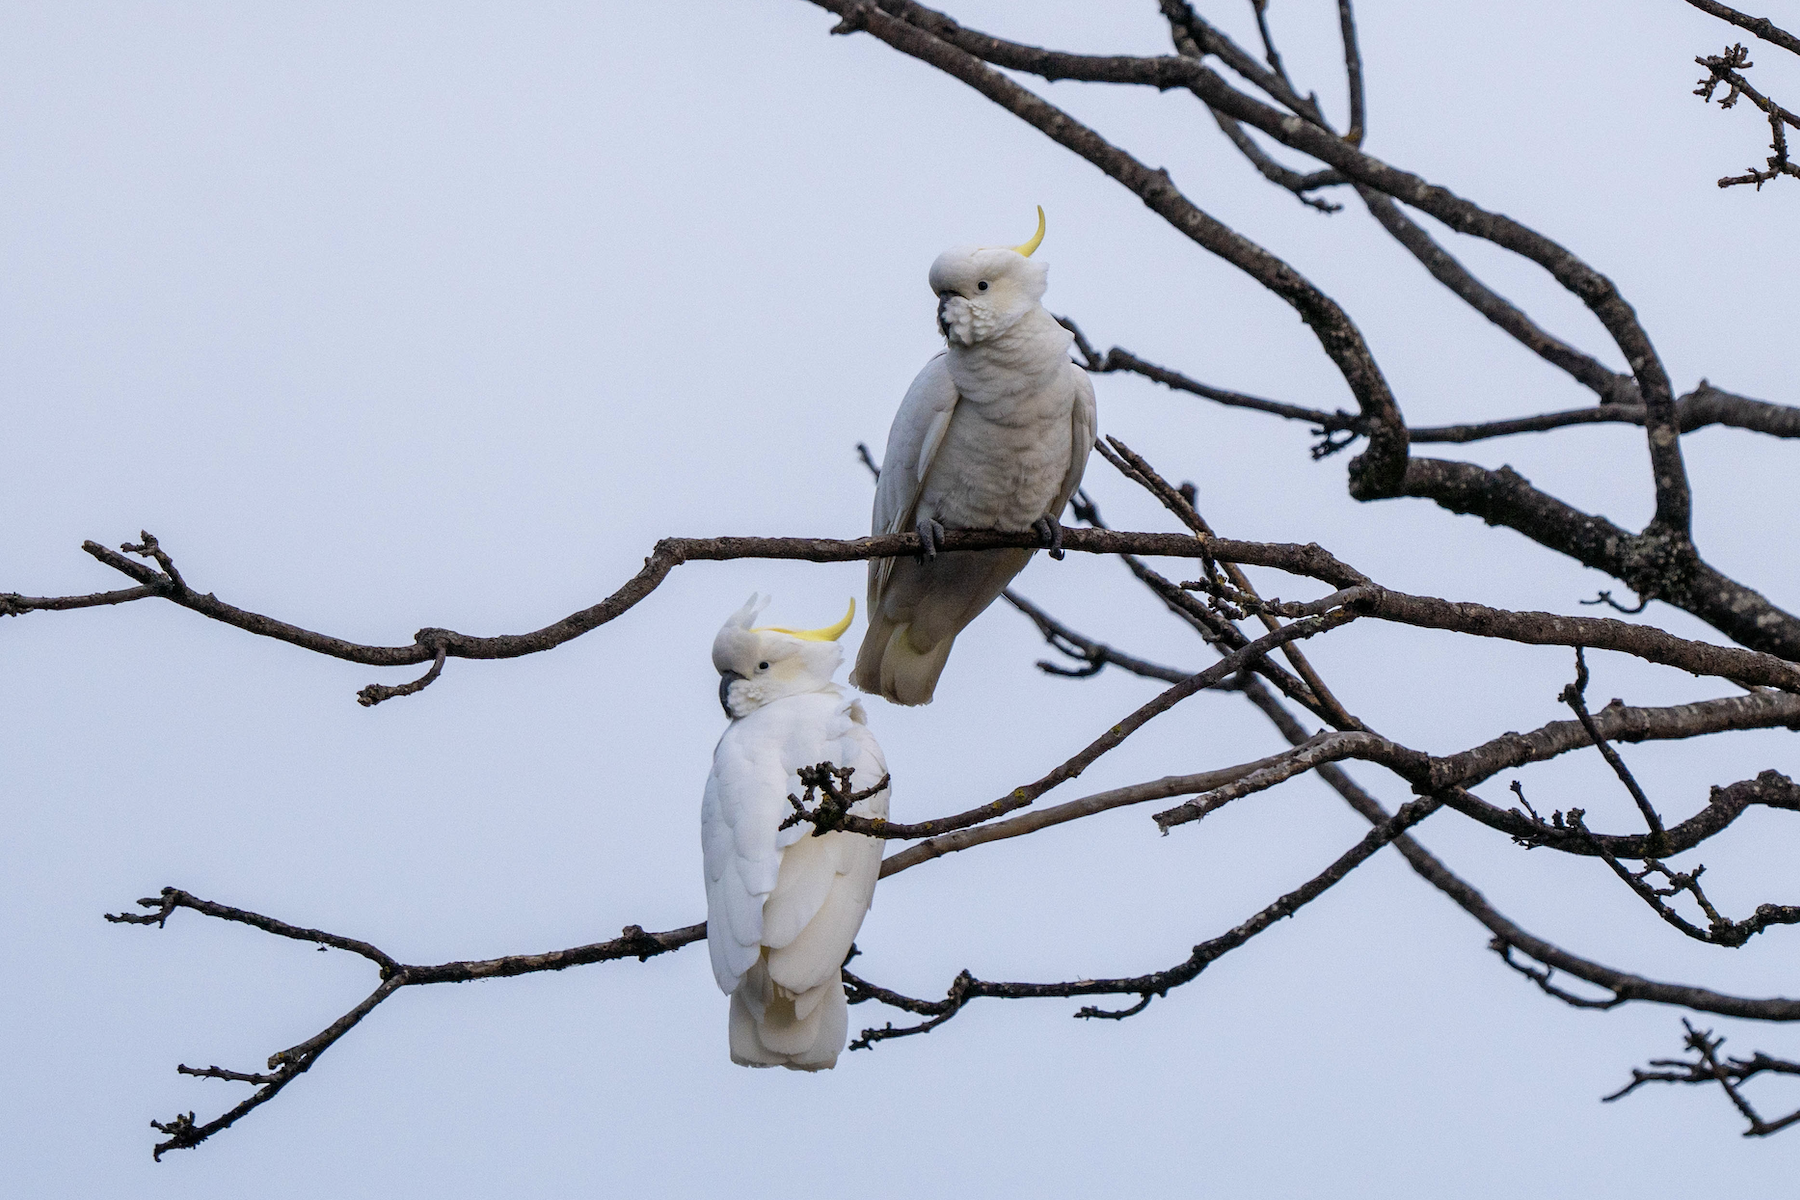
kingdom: Animalia
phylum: Chordata
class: Aves
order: Psittaciformes
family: Psittacidae
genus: Cacatua
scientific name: Cacatua galerita
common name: Sulphur-crested cockatoo
